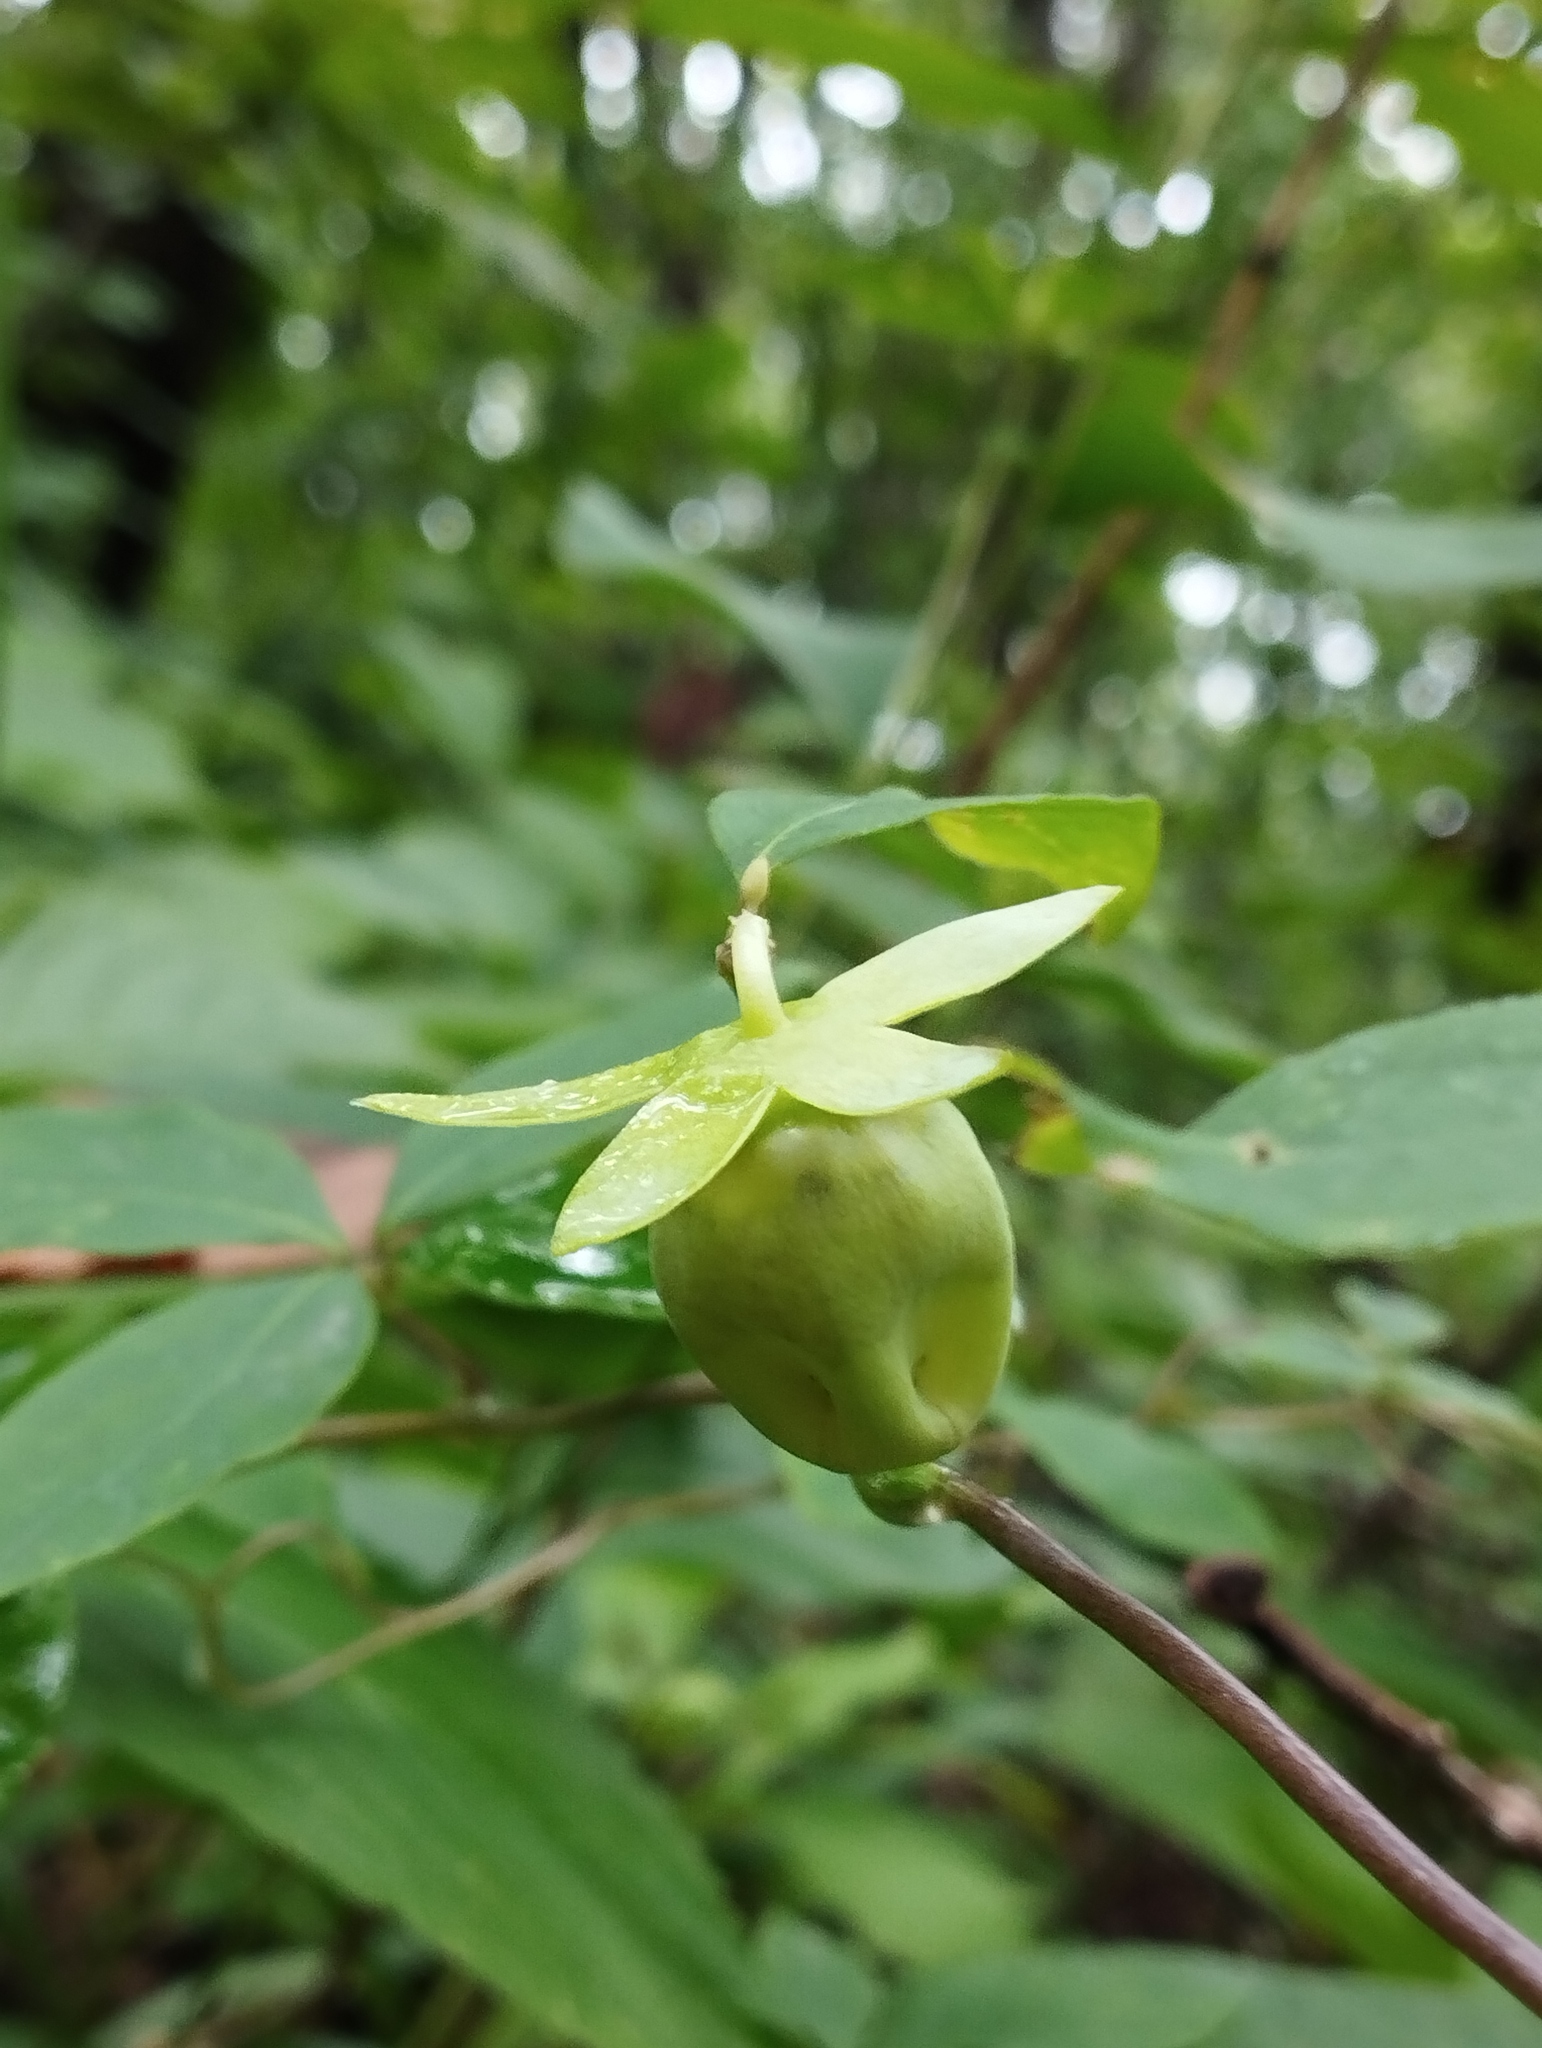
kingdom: Plantae
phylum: Tracheophyta
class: Magnoliopsida
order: Asterales
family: Campanulaceae
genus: Codonopsis
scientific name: Codonopsis lanceolata
